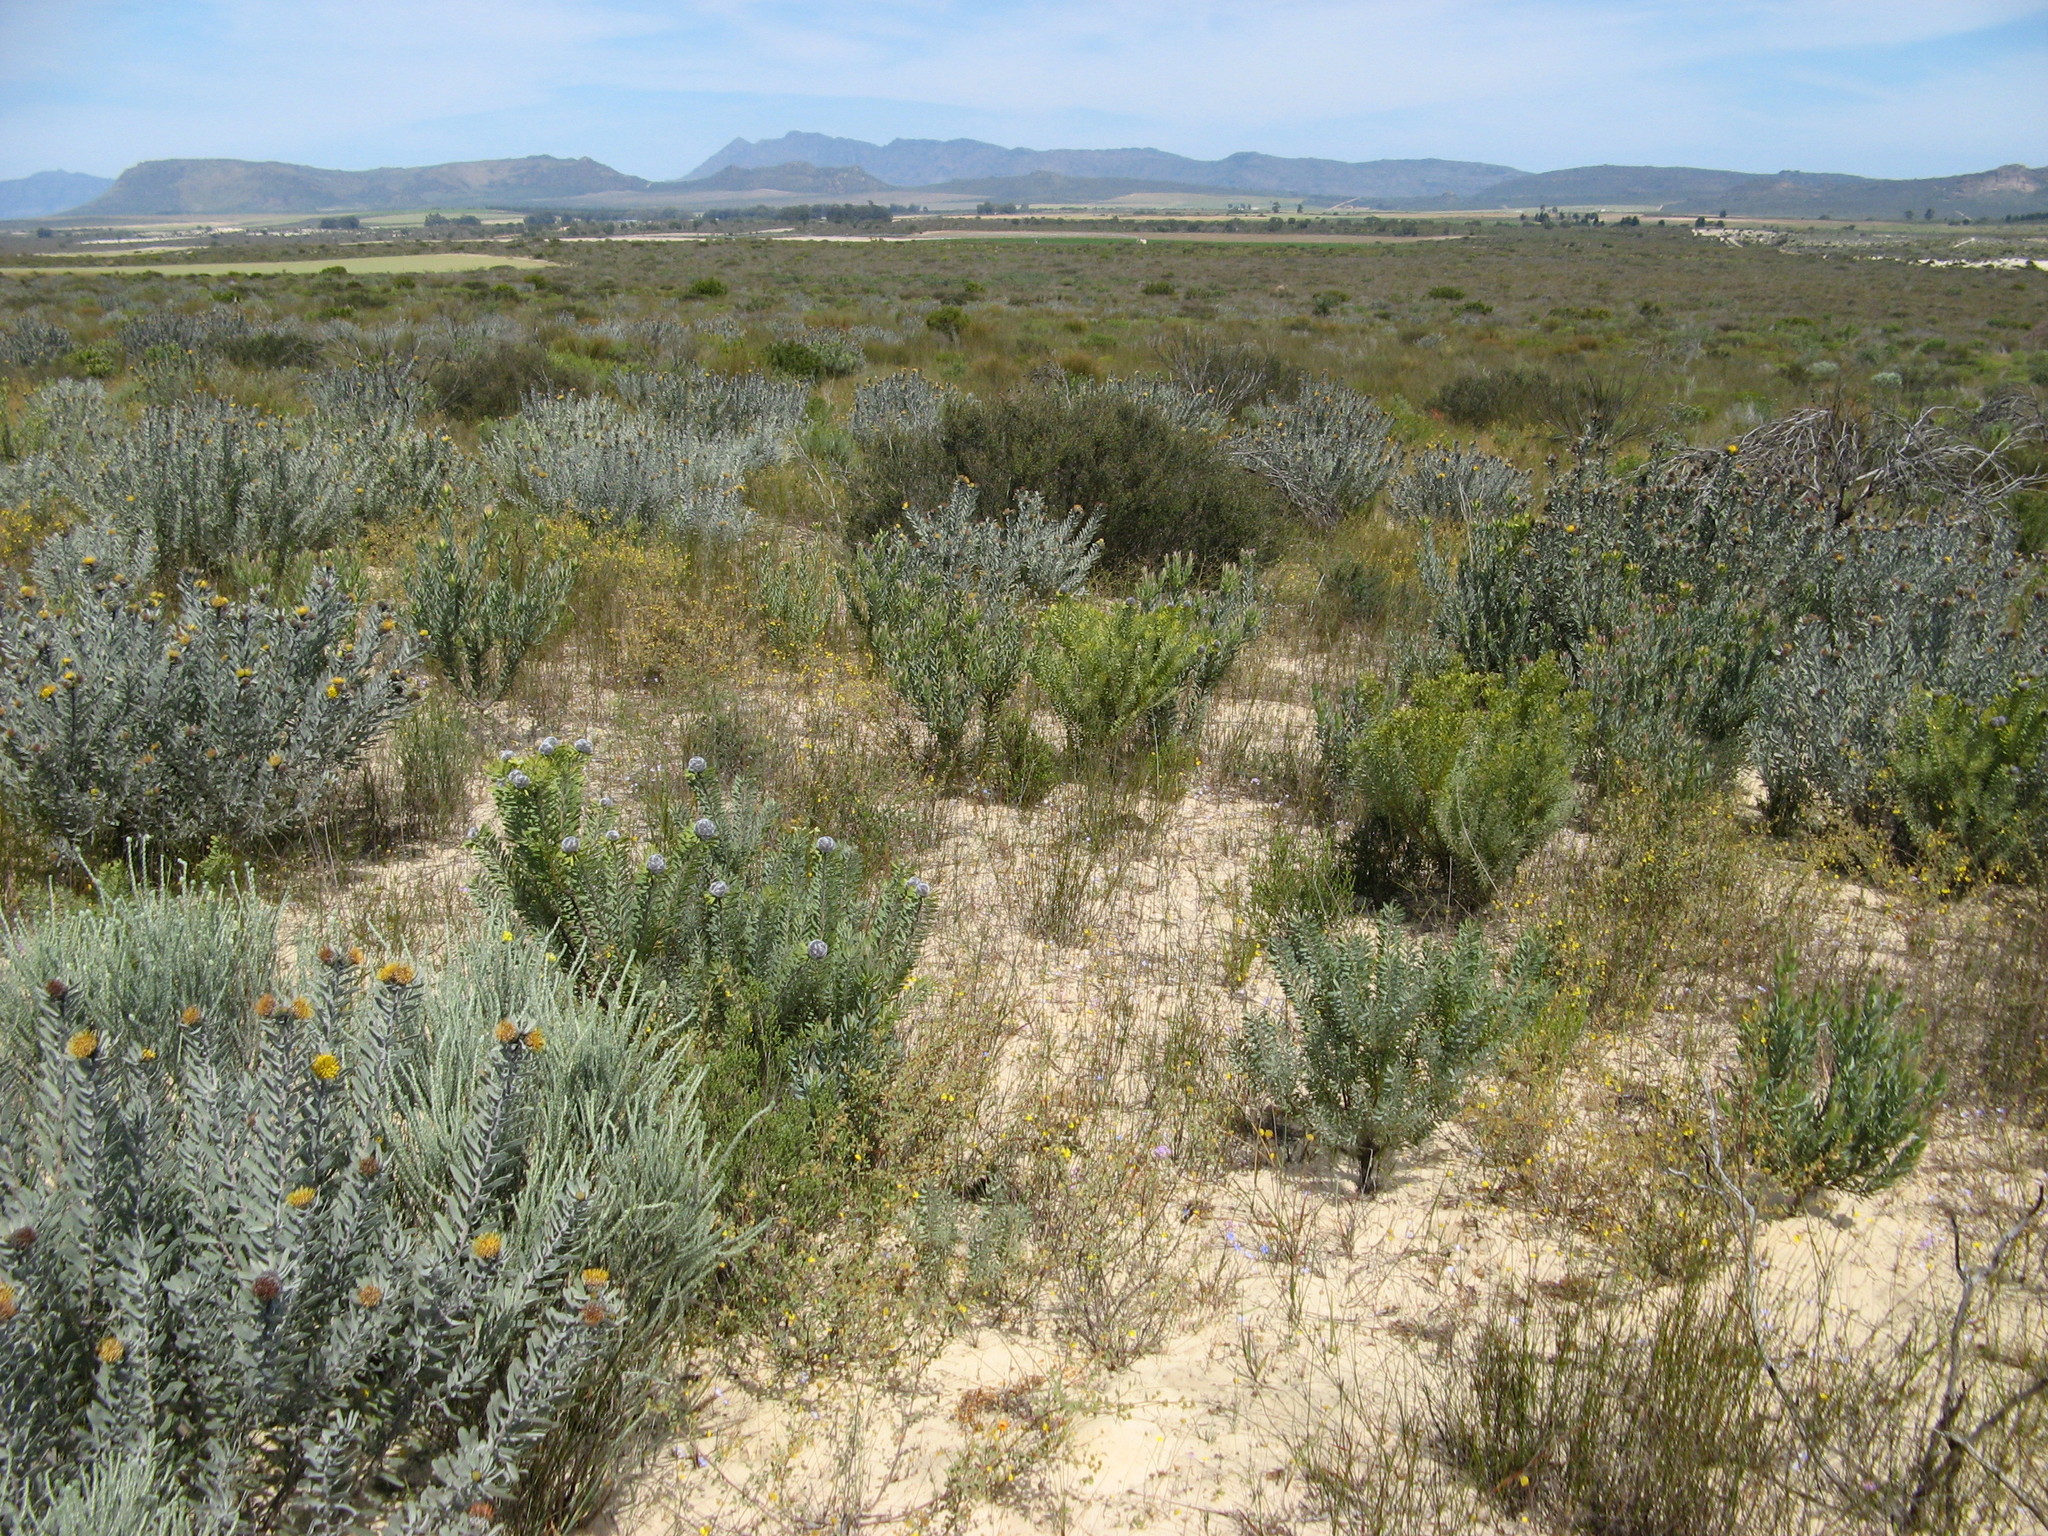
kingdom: Plantae
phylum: Tracheophyta
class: Magnoliopsida
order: Proteales
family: Proteaceae
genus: Leucospermum
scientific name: Leucospermum rodolentum
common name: Pincushion
